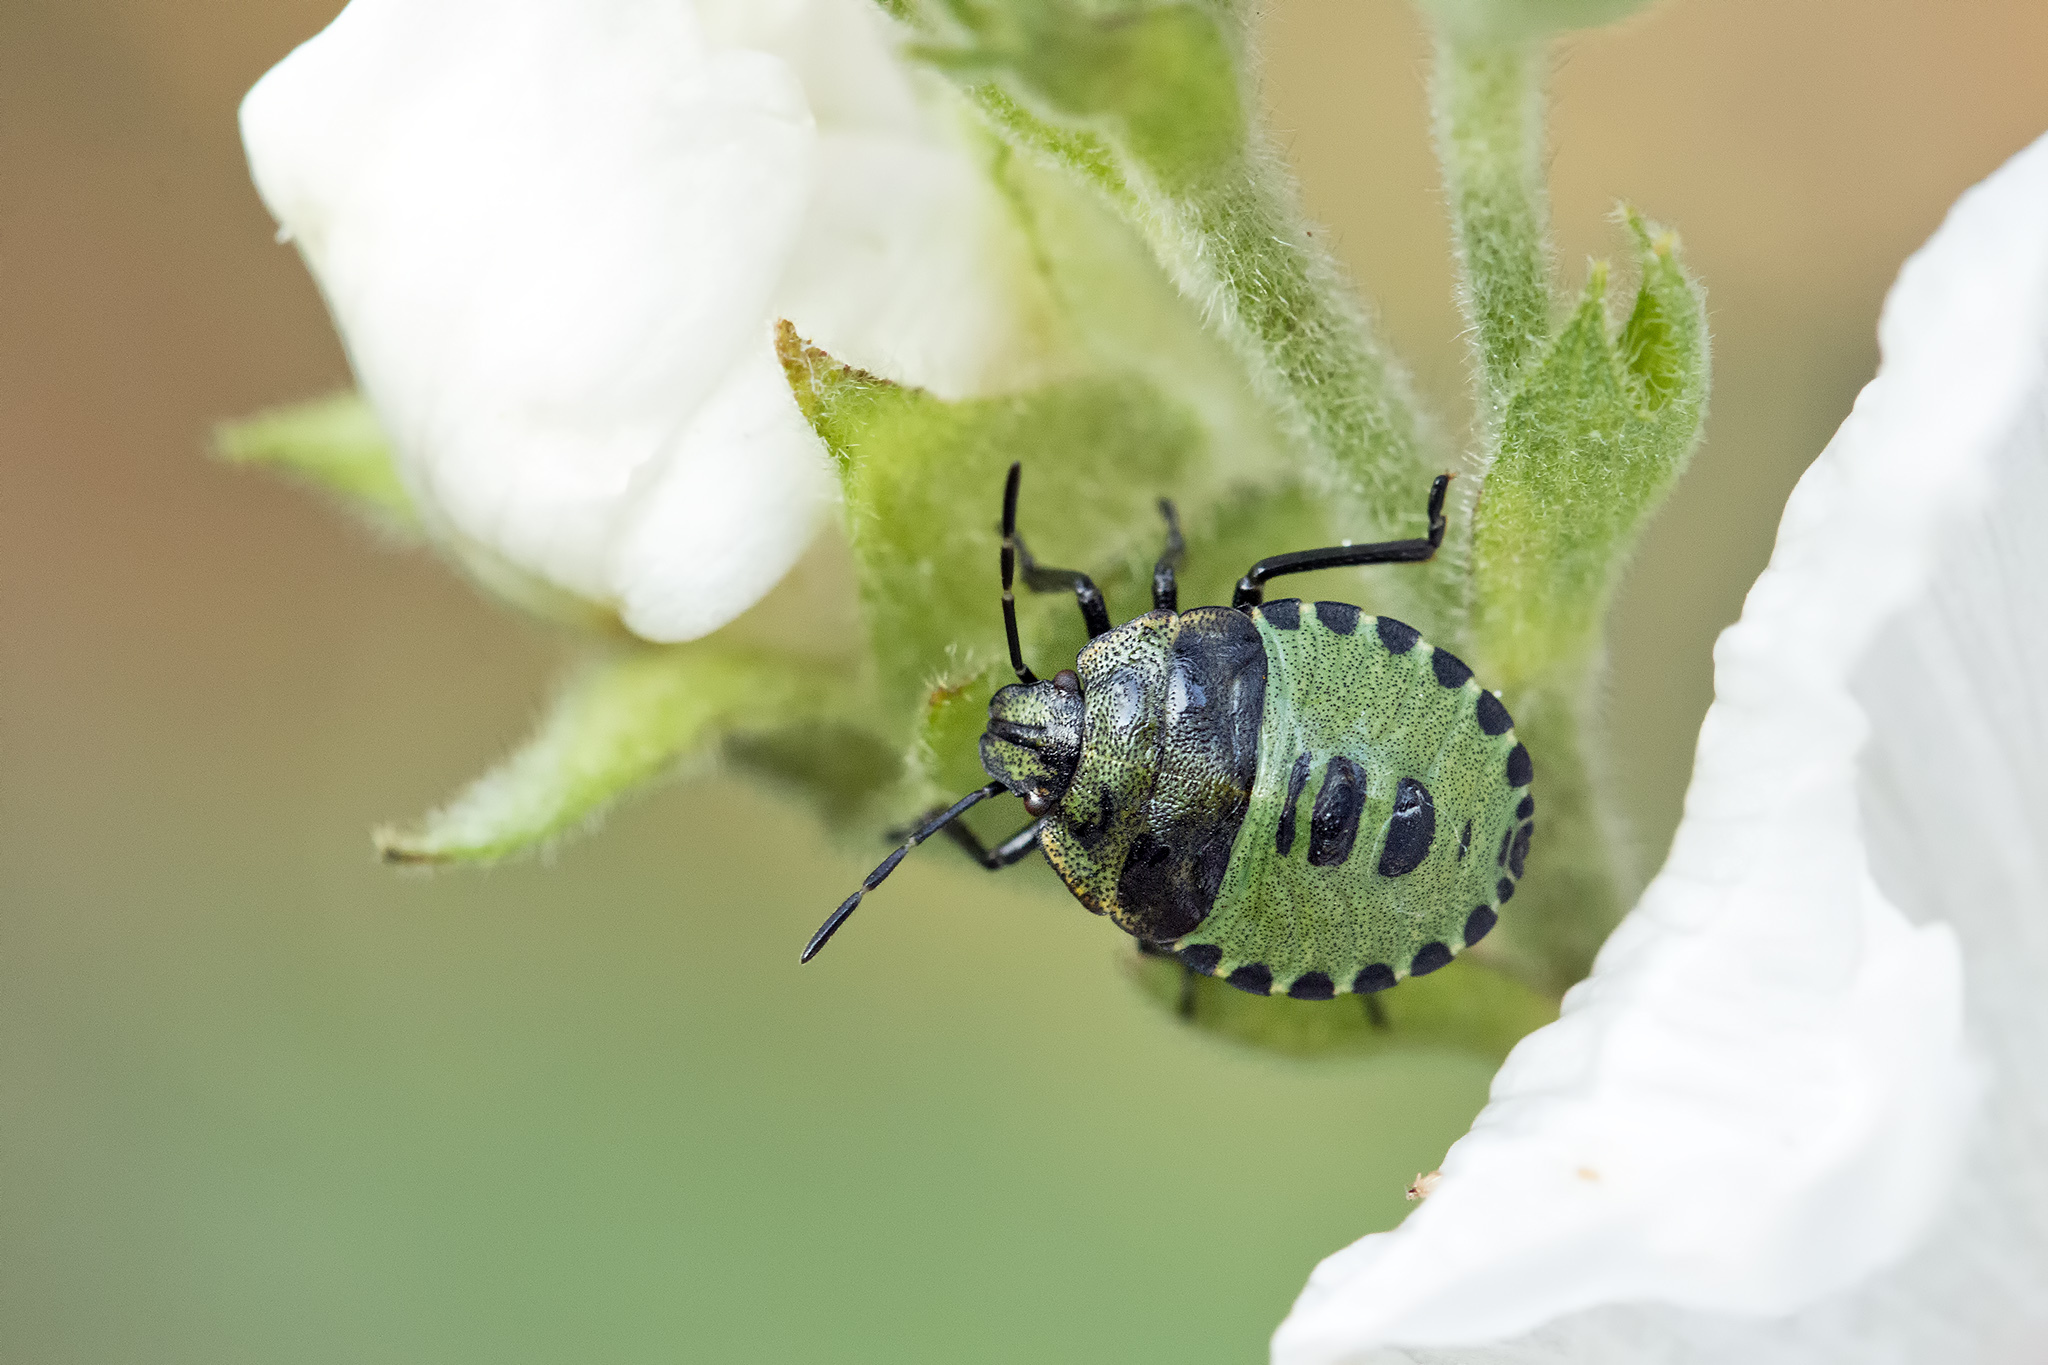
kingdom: Animalia
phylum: Arthropoda
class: Insecta
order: Hemiptera
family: Pentatomidae
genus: Palomena
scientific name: Palomena prasina
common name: Green shieldbug
